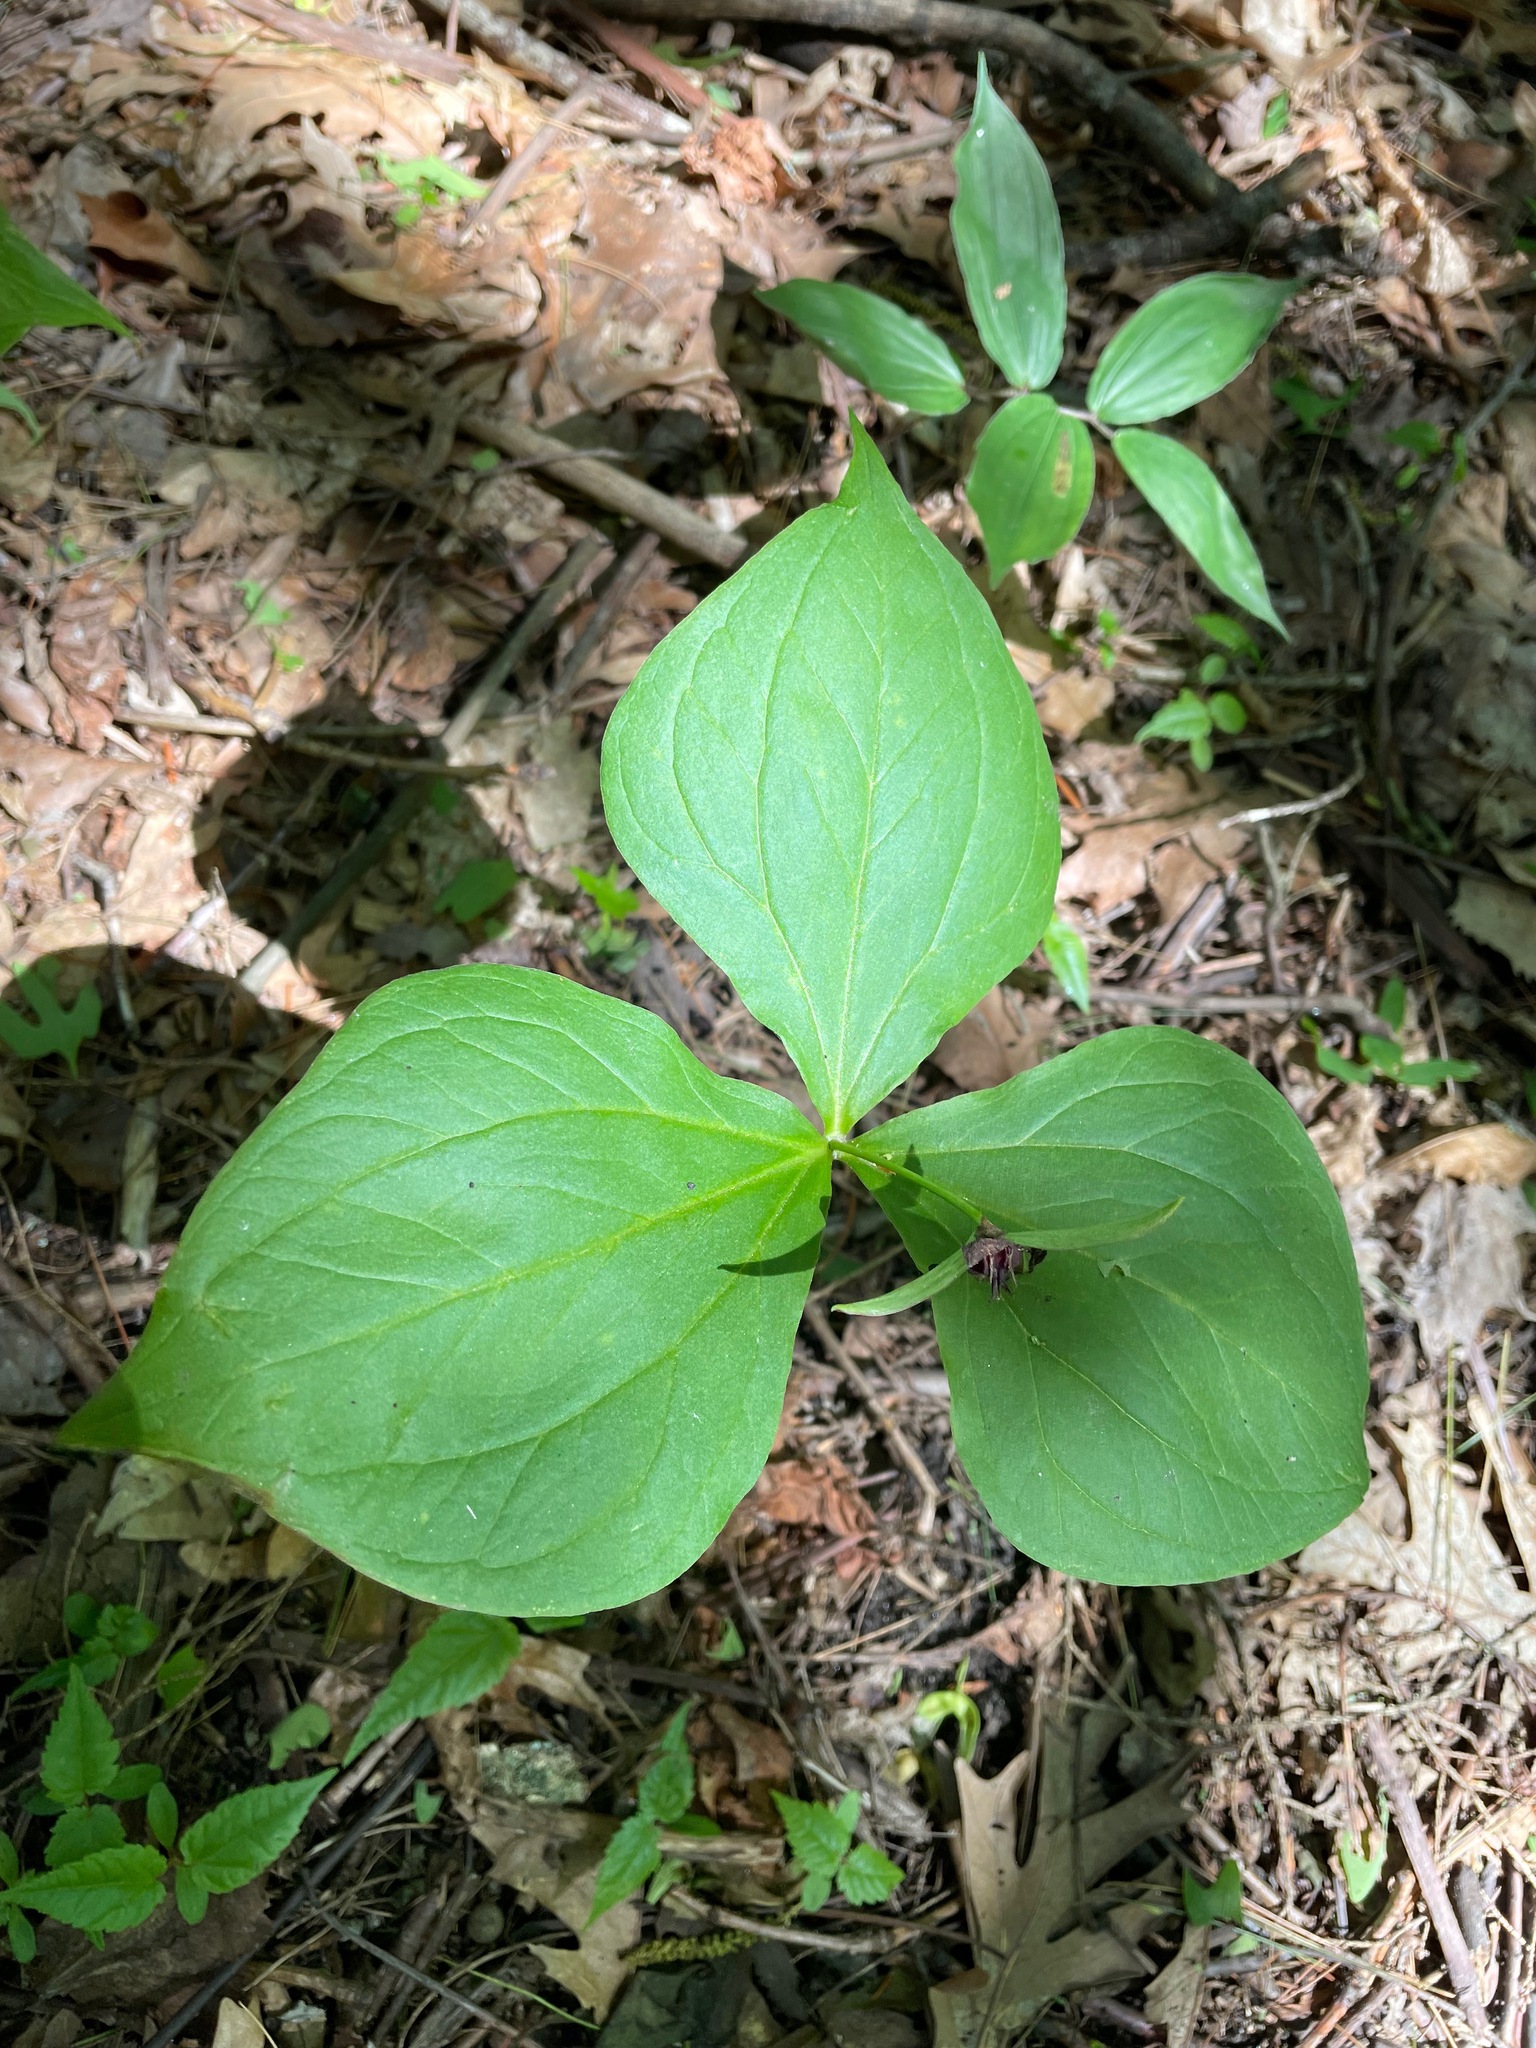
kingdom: Plantae
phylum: Tracheophyta
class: Liliopsida
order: Liliales
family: Melanthiaceae
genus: Trillium
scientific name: Trillium erectum
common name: Purple trillium
